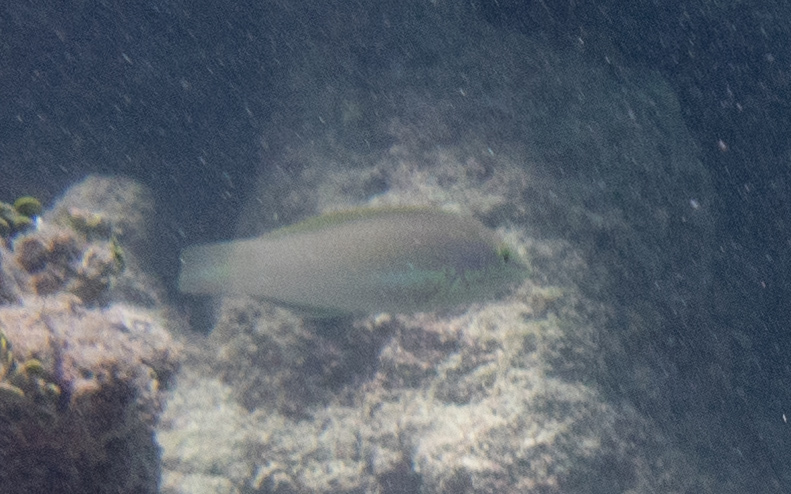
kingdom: Animalia
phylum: Chordata
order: Perciformes
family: Labridae
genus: Halichoeres
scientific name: Halichoeres chloropterus
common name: Pastel-green wrasse
